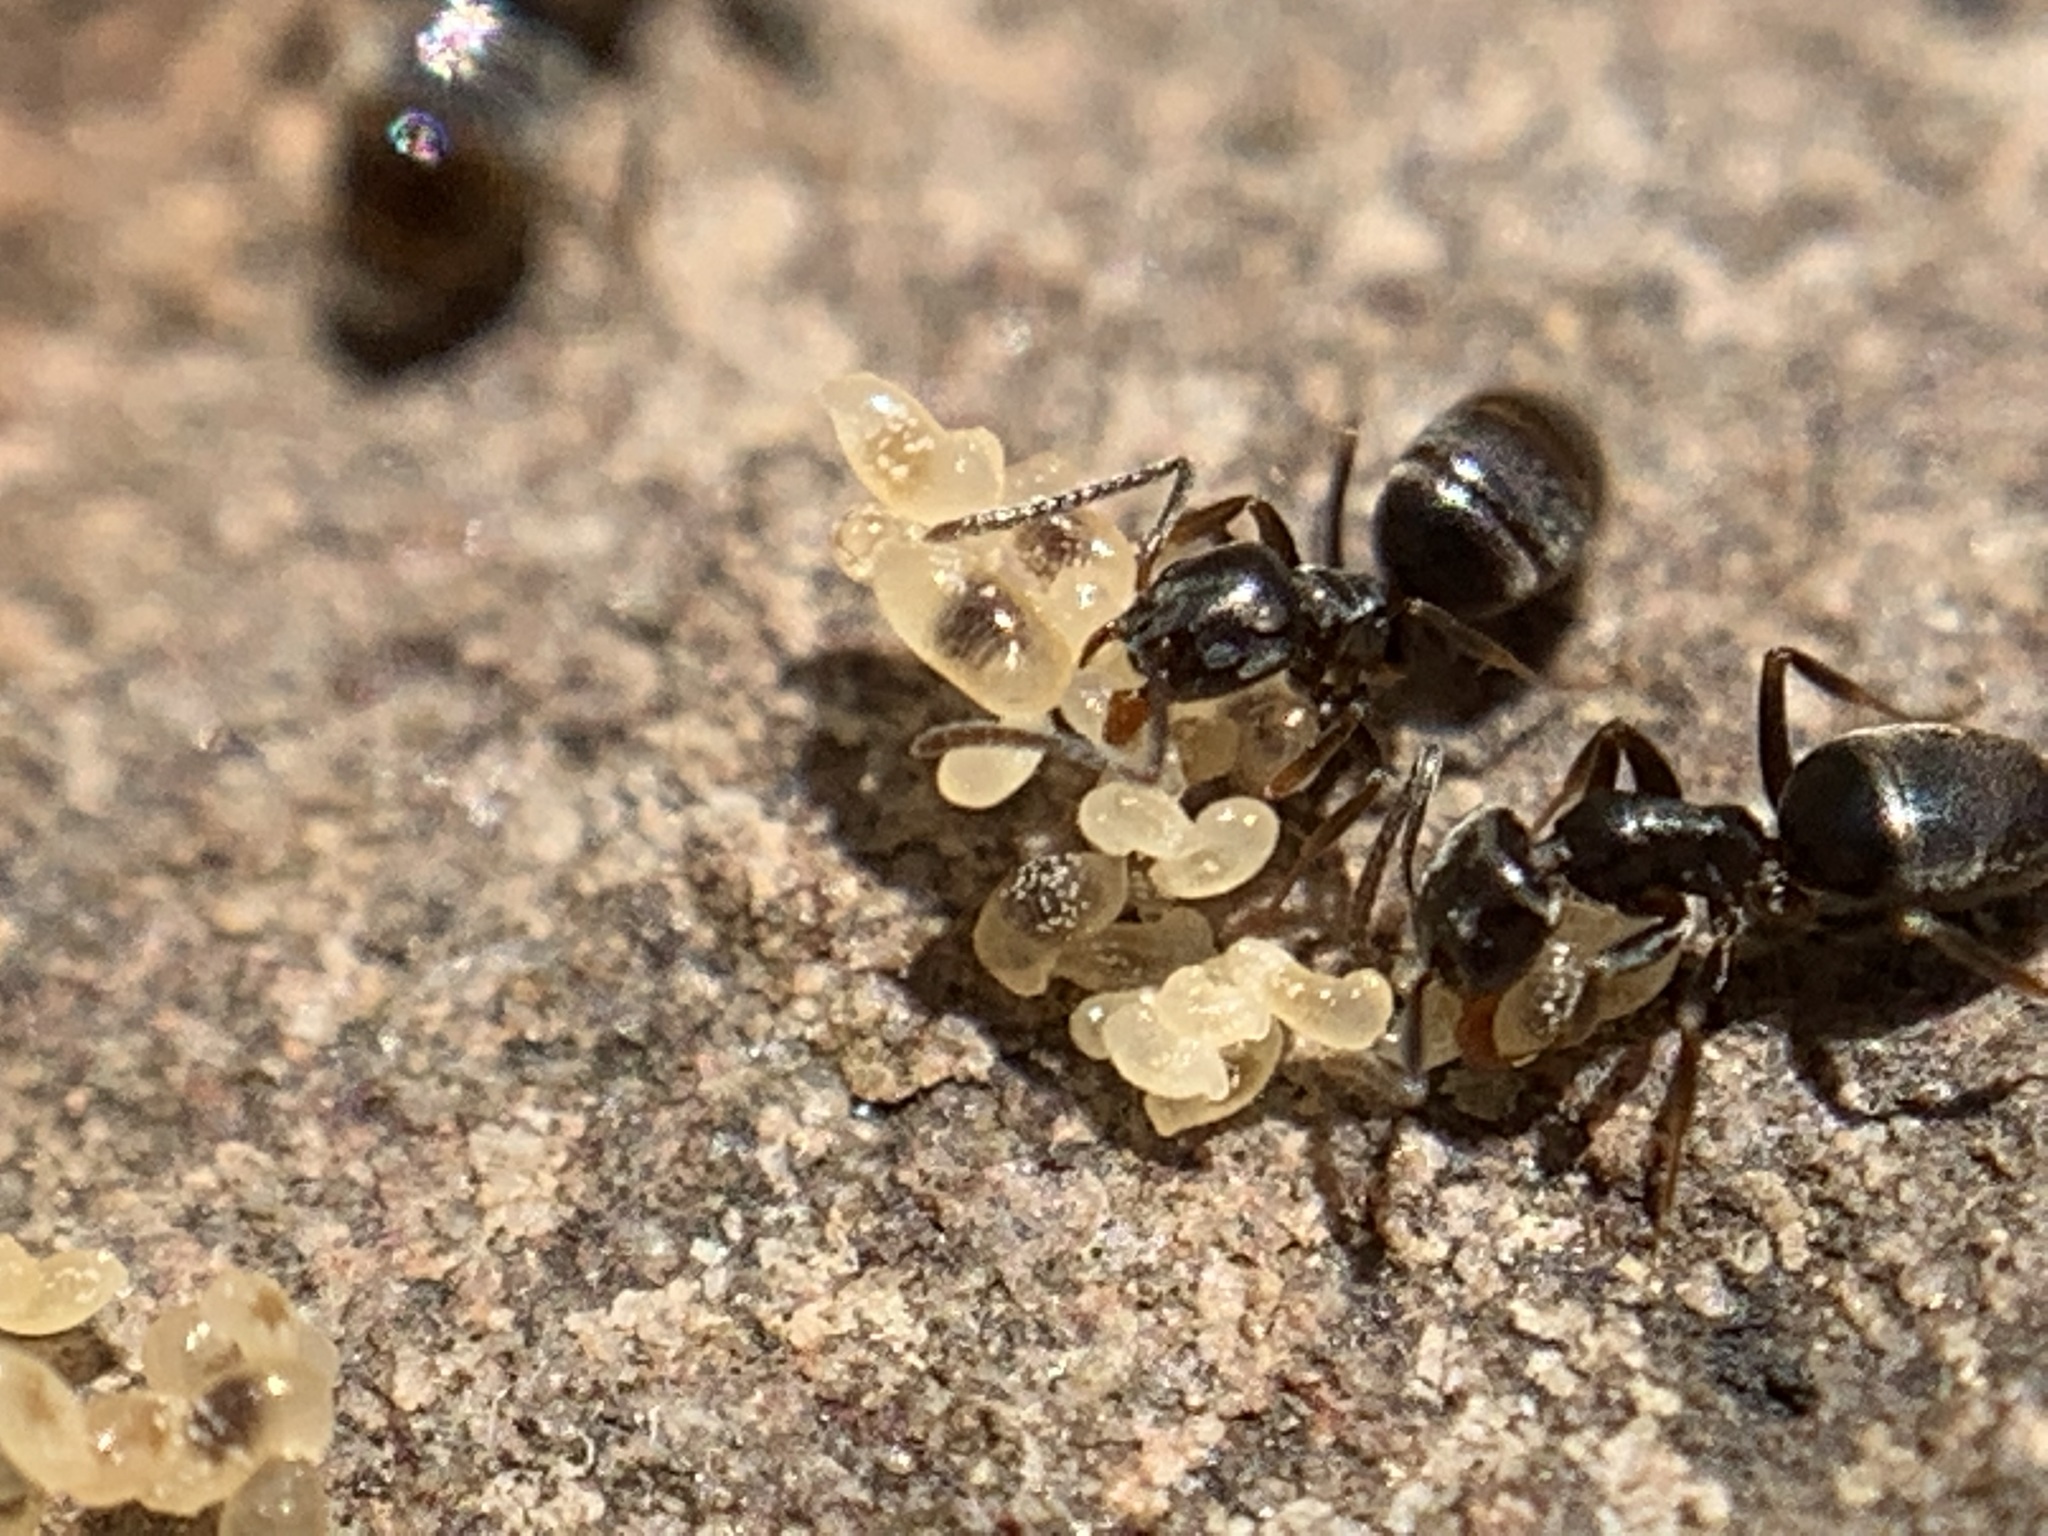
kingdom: Animalia
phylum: Arthropoda
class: Insecta
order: Hymenoptera
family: Formicidae
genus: Tapinoma
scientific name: Tapinoma sessile
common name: Odorous house ant
